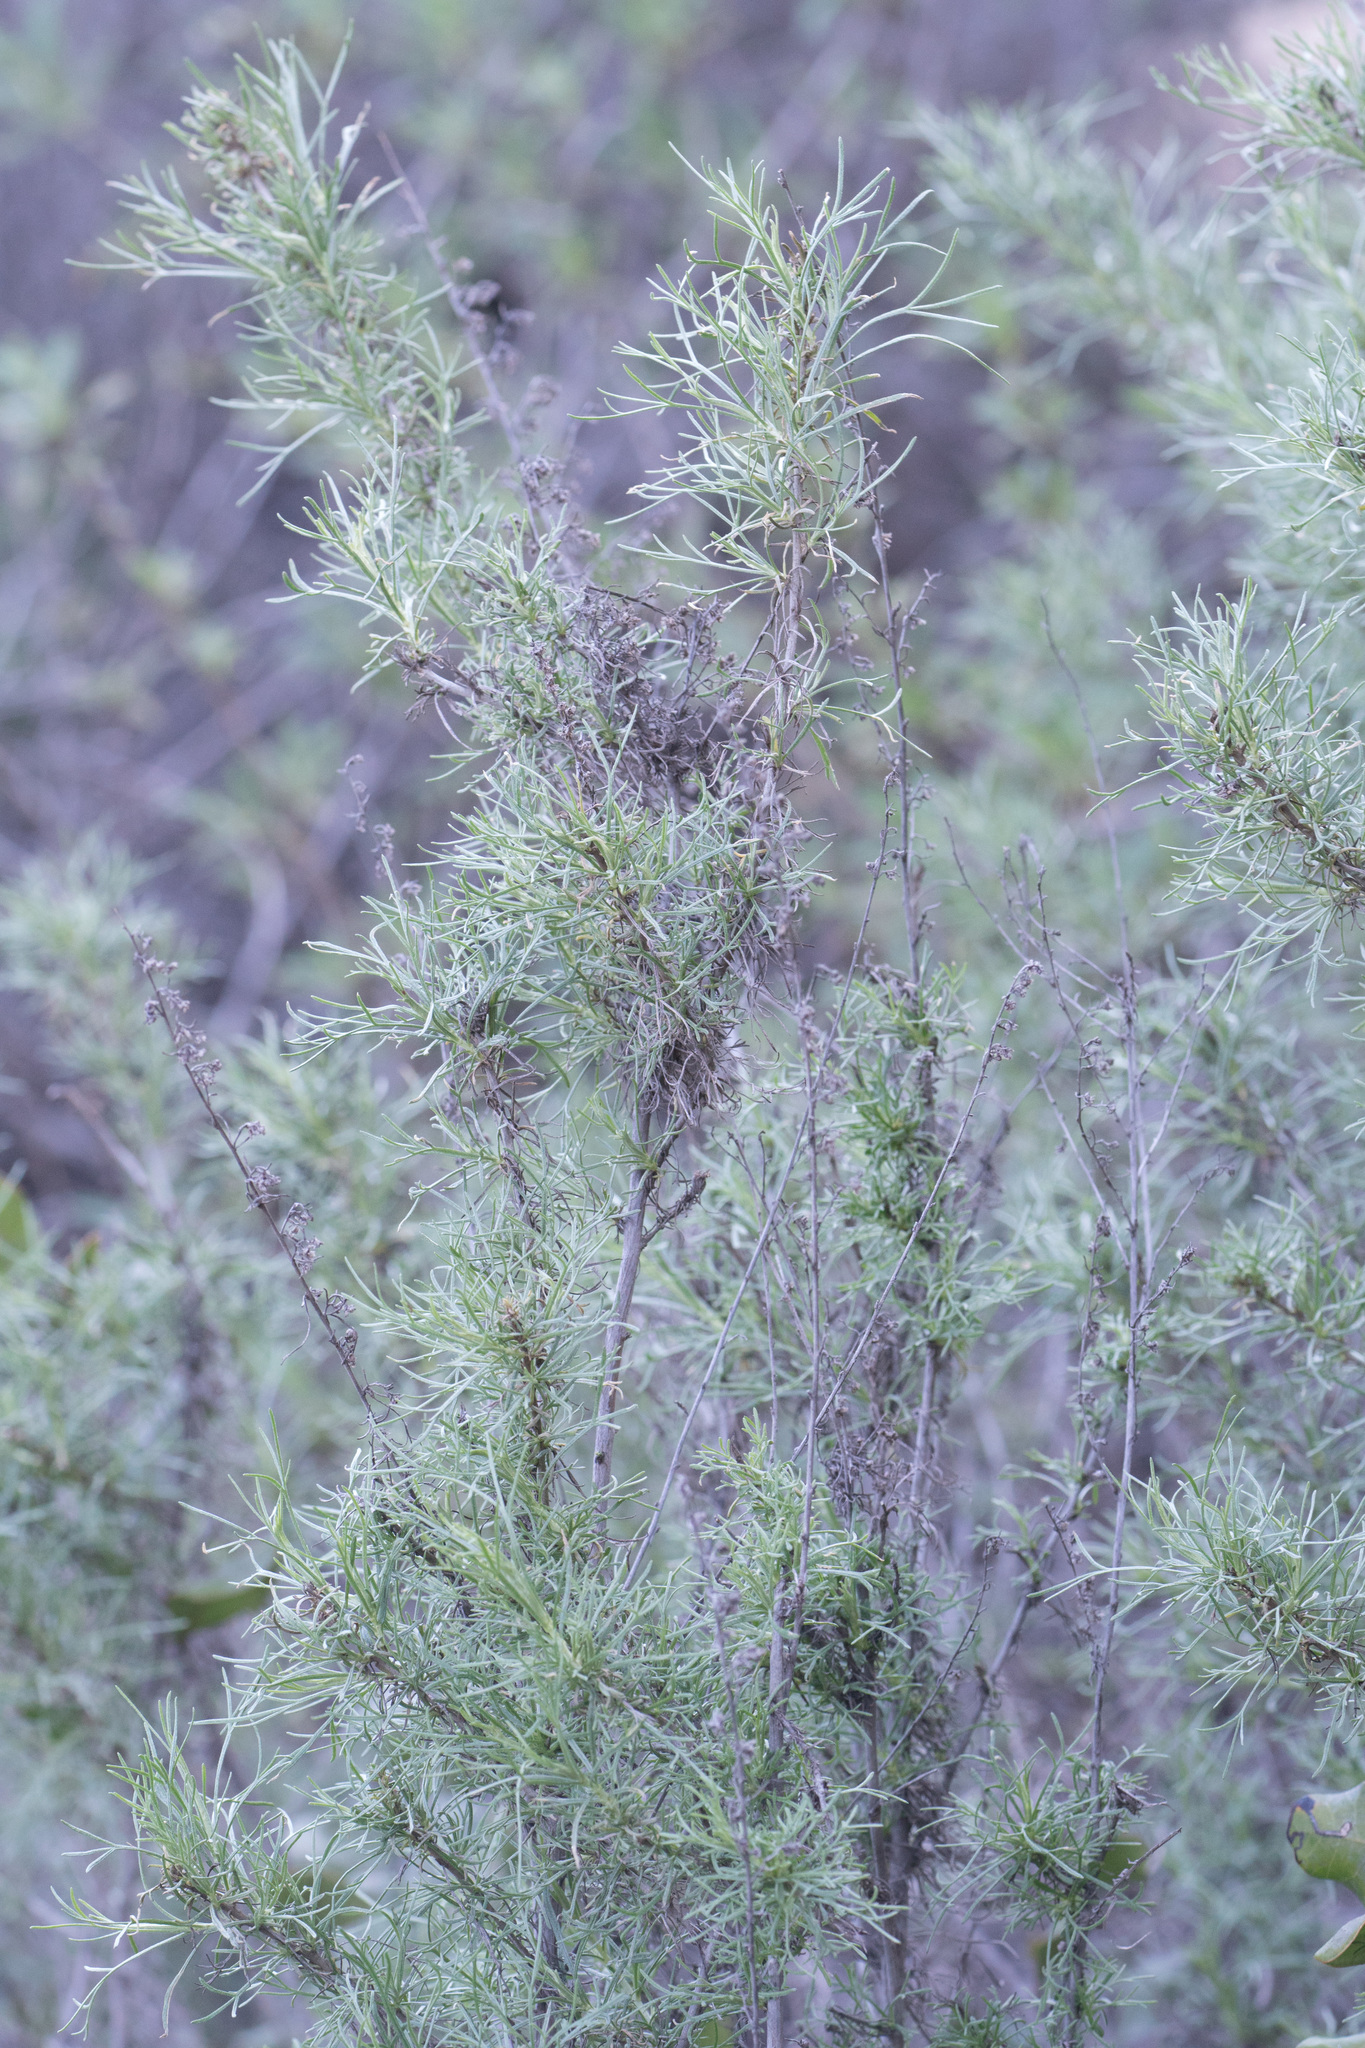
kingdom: Plantae
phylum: Tracheophyta
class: Magnoliopsida
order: Asterales
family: Asteraceae
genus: Artemisia
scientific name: Artemisia californica
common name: California sagebrush
